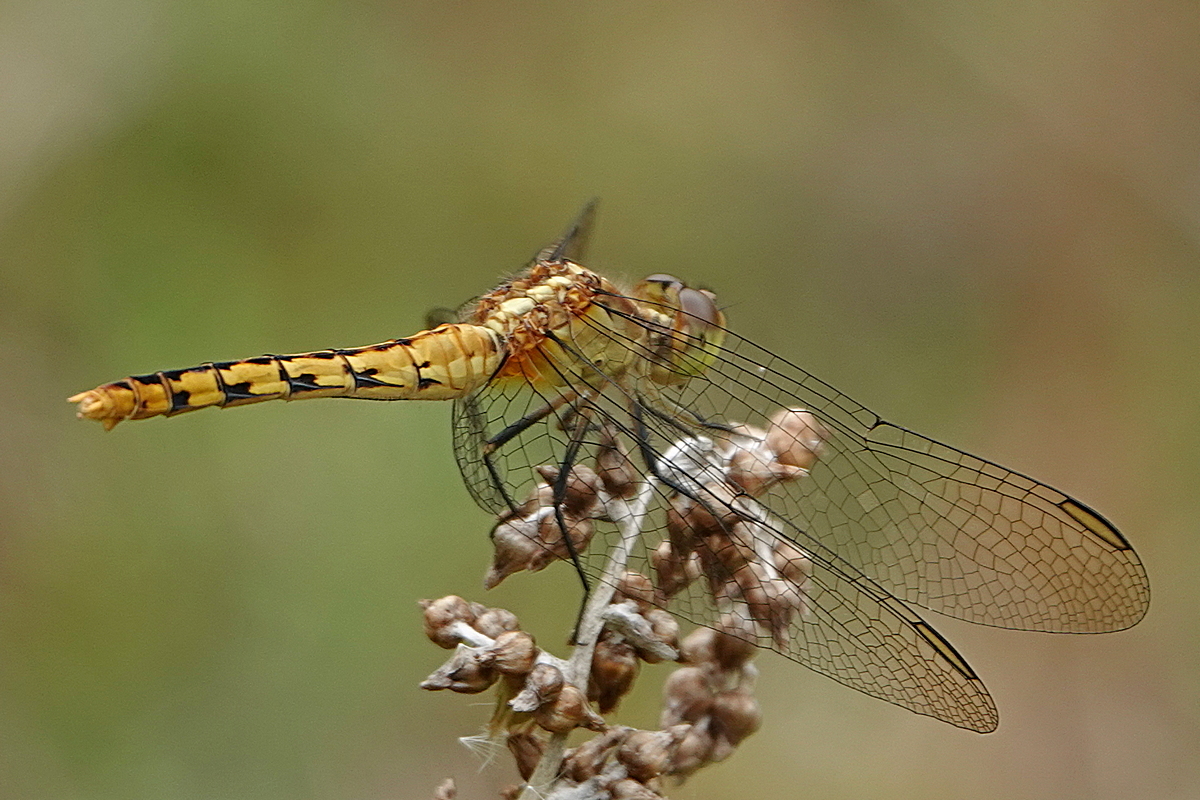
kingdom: Animalia
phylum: Arthropoda
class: Insecta
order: Odonata
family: Libellulidae
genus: Diplacodes
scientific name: Diplacodes melanopsis
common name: Black-faced percher
